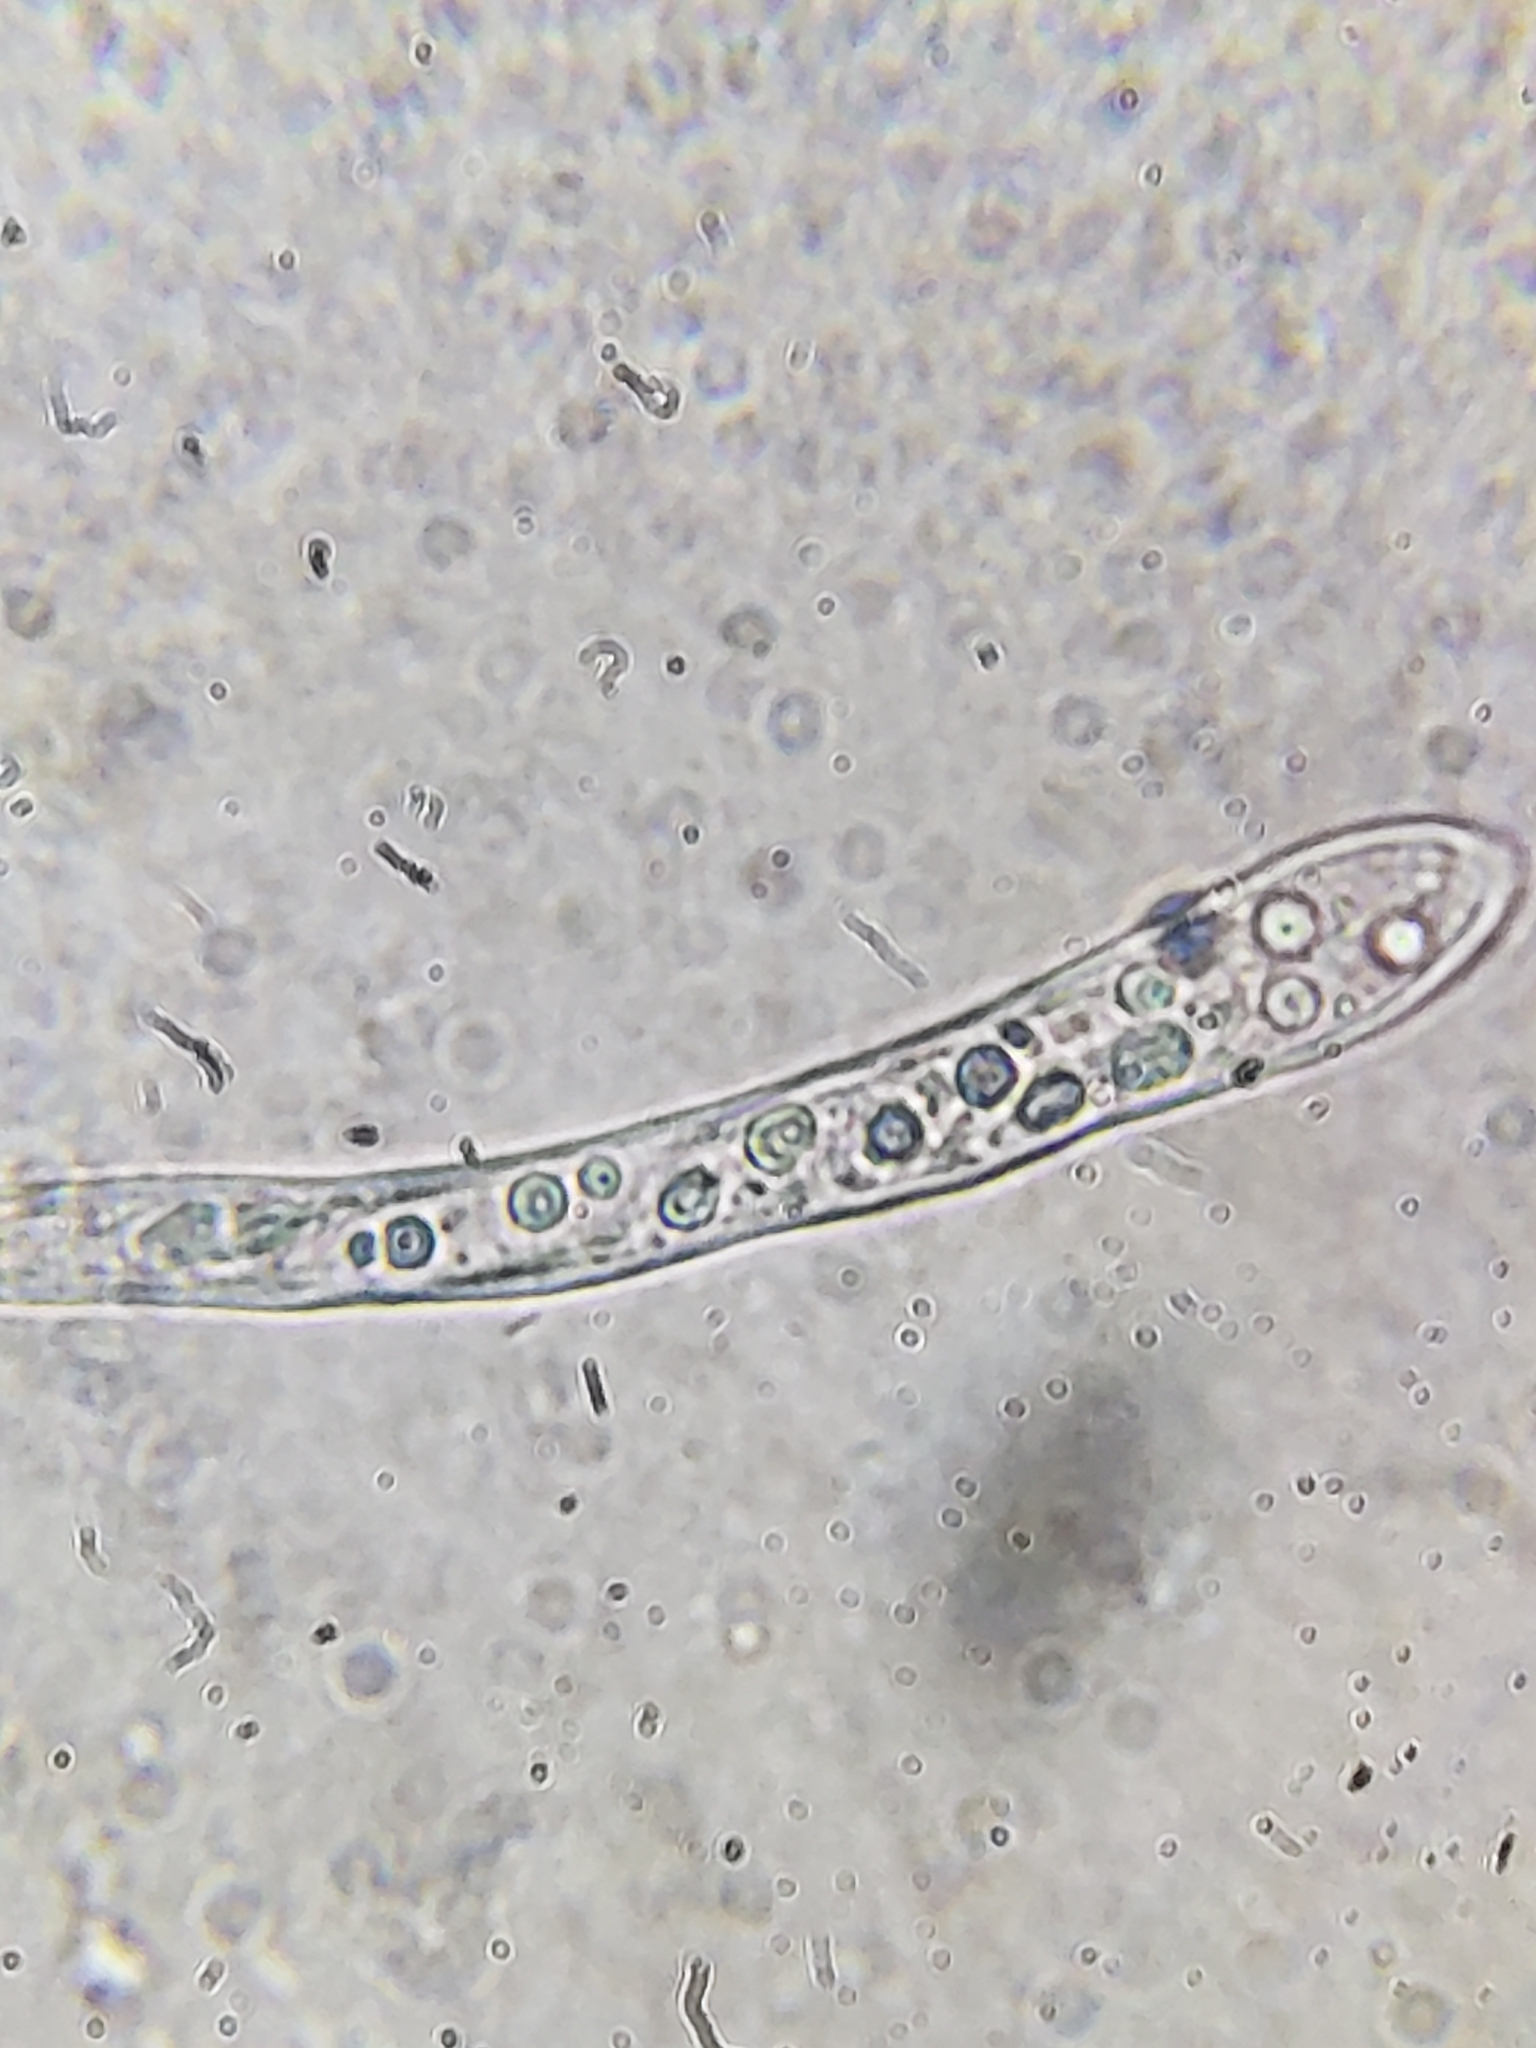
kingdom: Fungi
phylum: Ascomycota
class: Leotiomycetes
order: Leotiales
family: Leotiaceae
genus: Leotia
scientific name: Leotia lubrica
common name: Jellybaby
